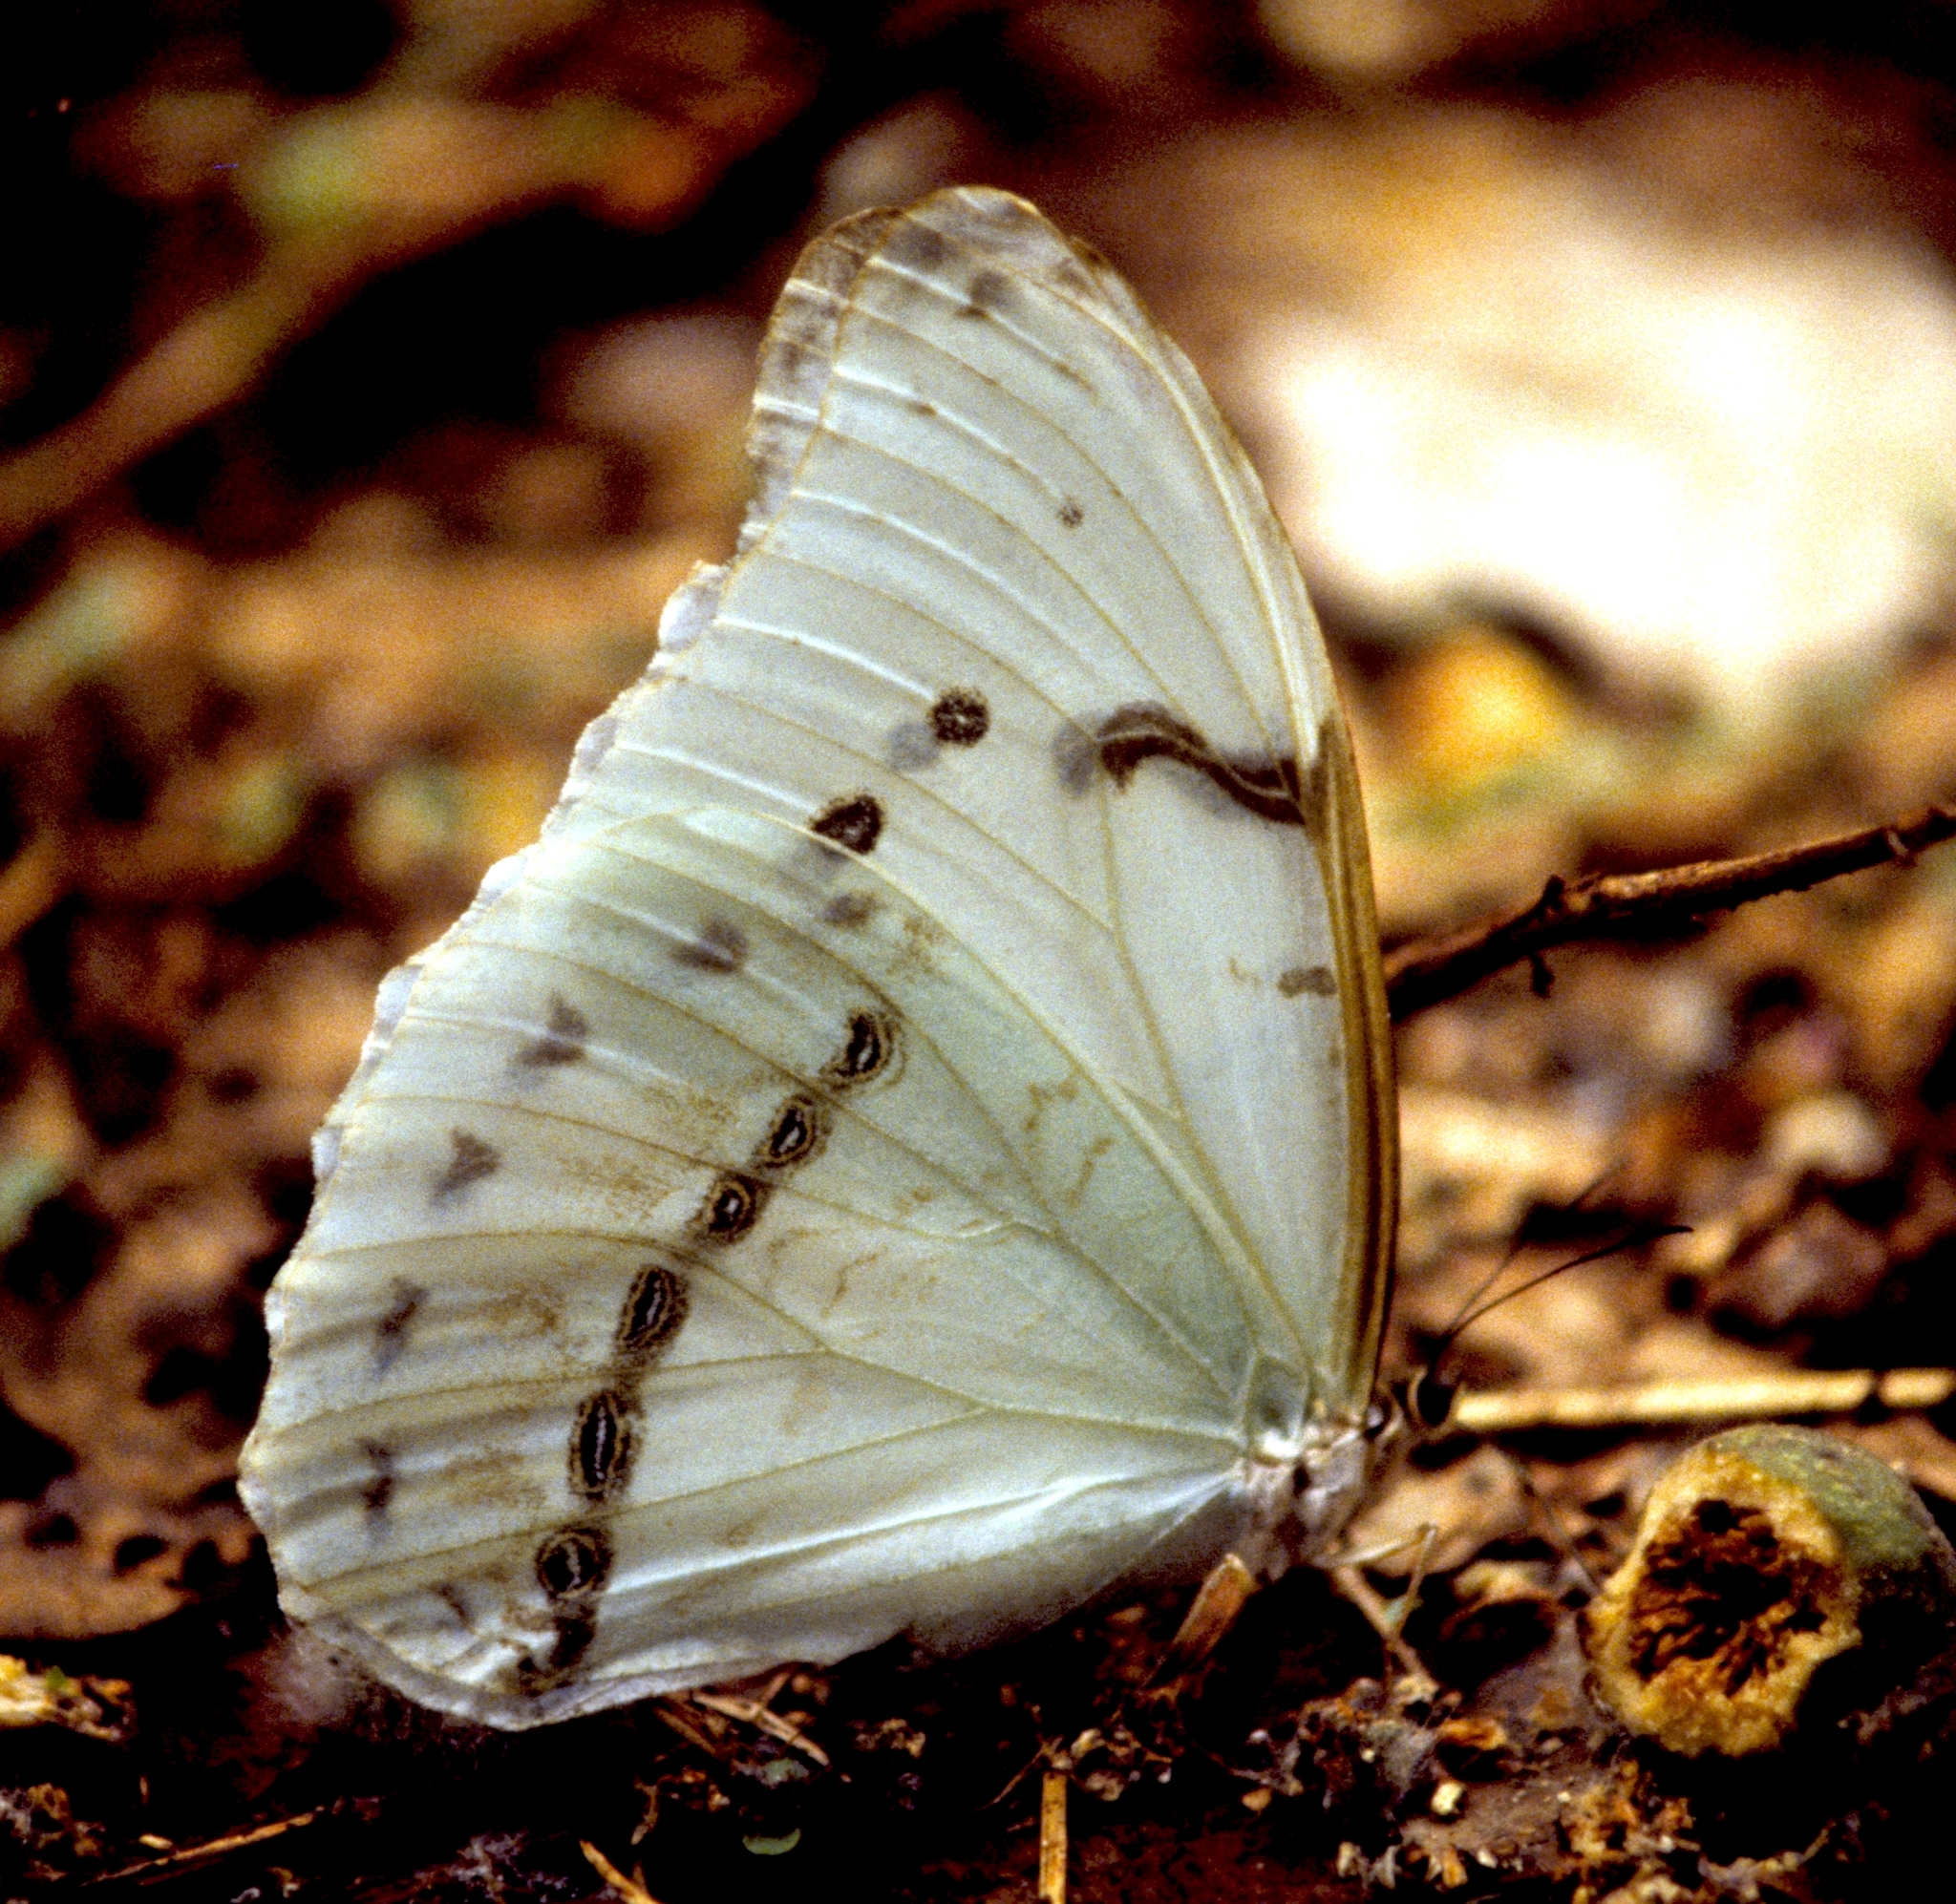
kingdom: Animalia
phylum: Arthropoda
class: Insecta
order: Lepidoptera
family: Nymphalidae
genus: Morpho
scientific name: Morpho epistrophus
